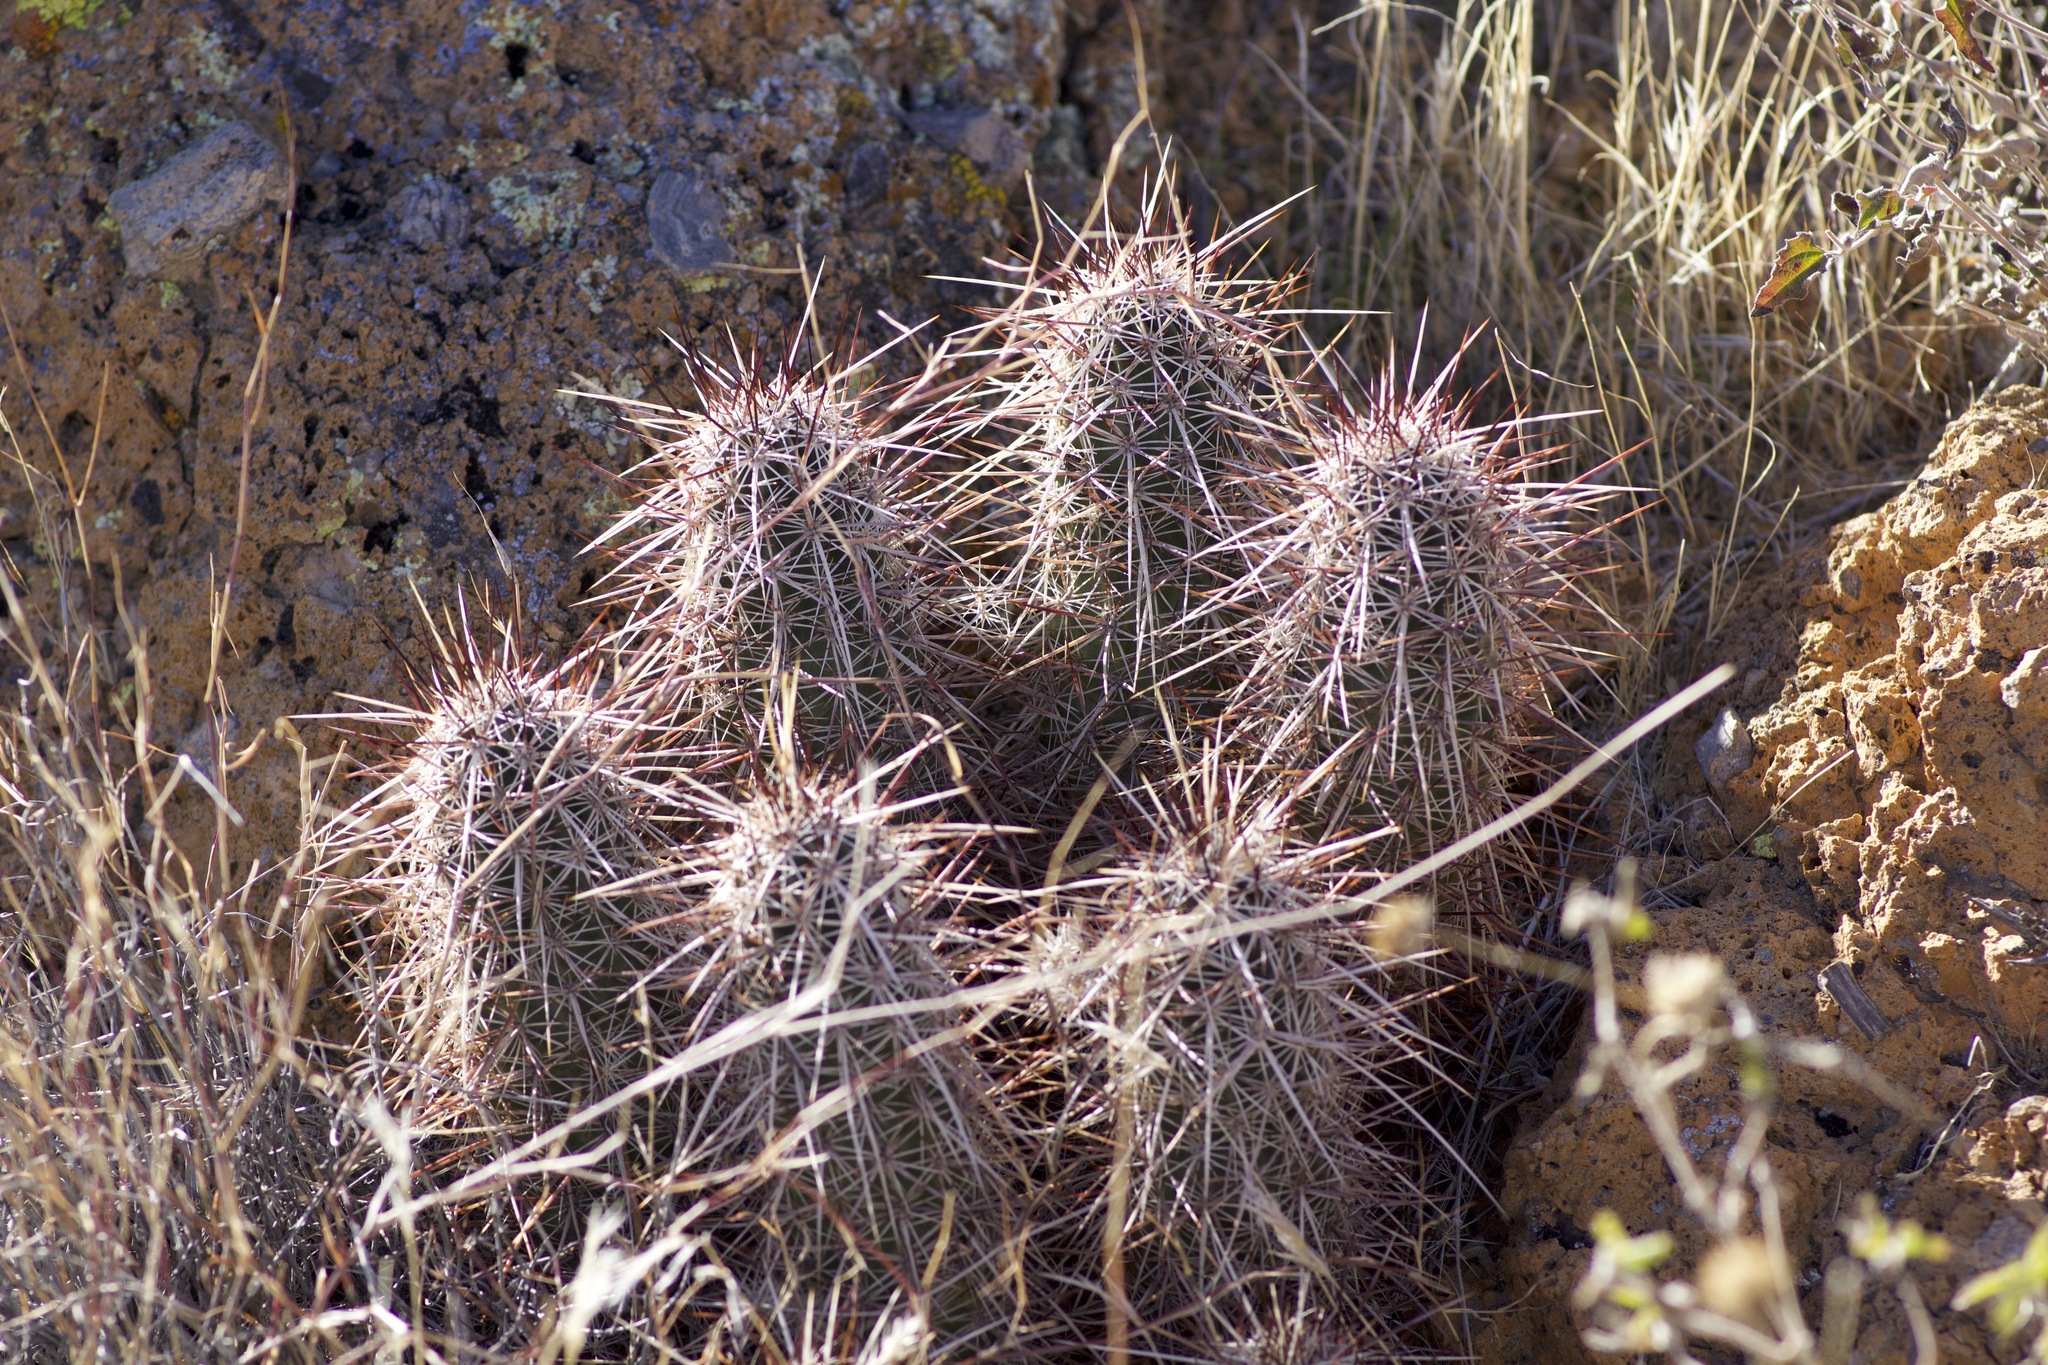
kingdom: Plantae
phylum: Tracheophyta
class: Magnoliopsida
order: Caryophyllales
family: Cactaceae
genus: Echinocereus
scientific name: Echinocereus engelmannii
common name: Engelmann's hedgehog cactus
